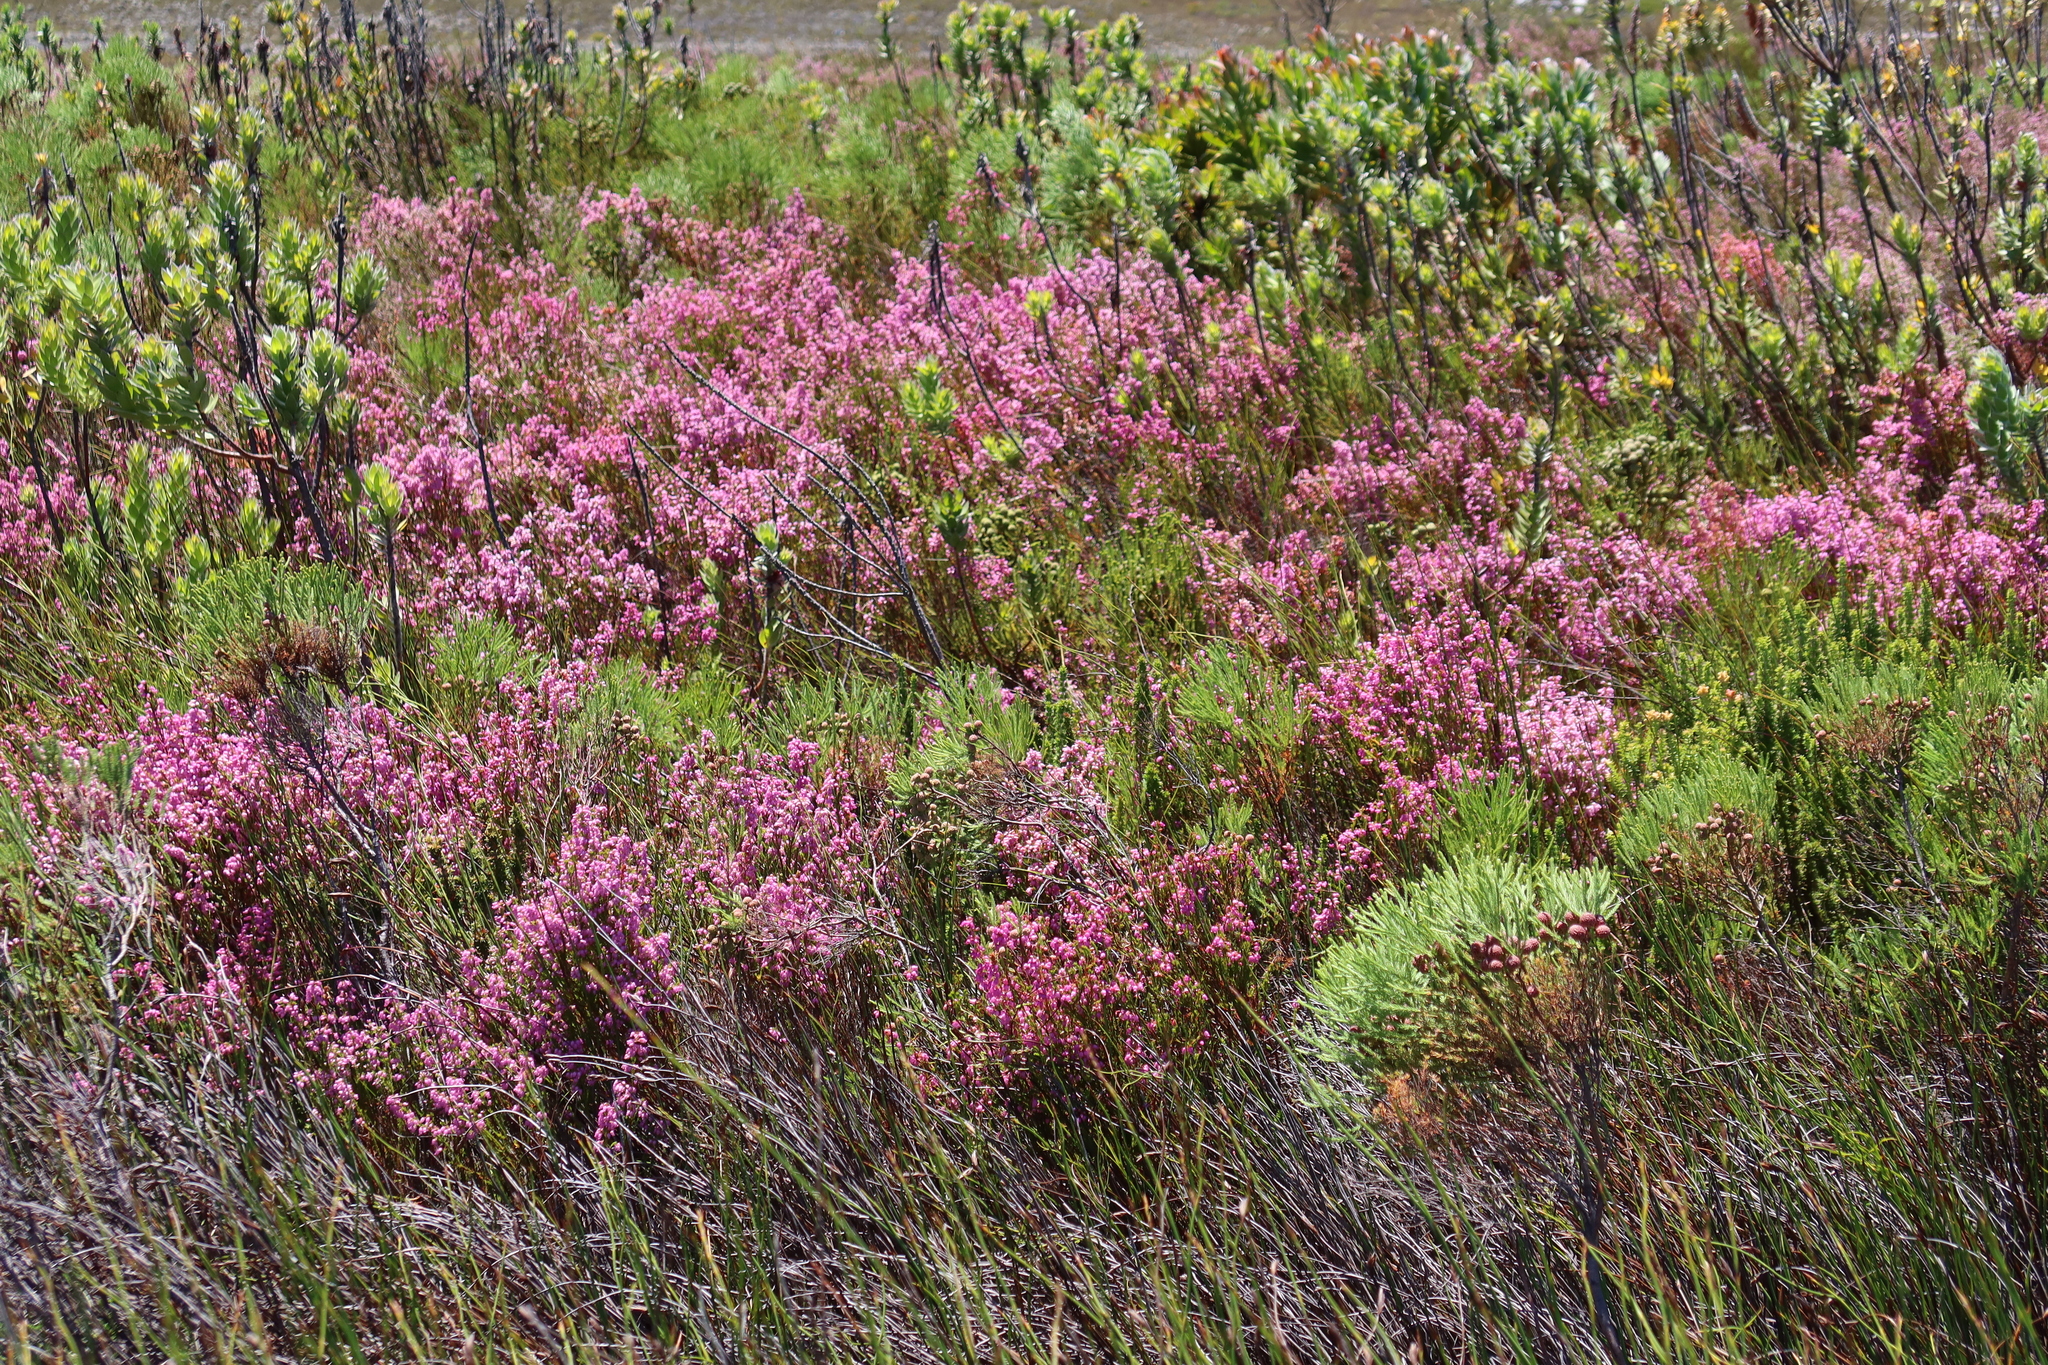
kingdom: Plantae
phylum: Tracheophyta
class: Magnoliopsida
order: Ericales
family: Ericaceae
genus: Erica
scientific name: Erica laeta
